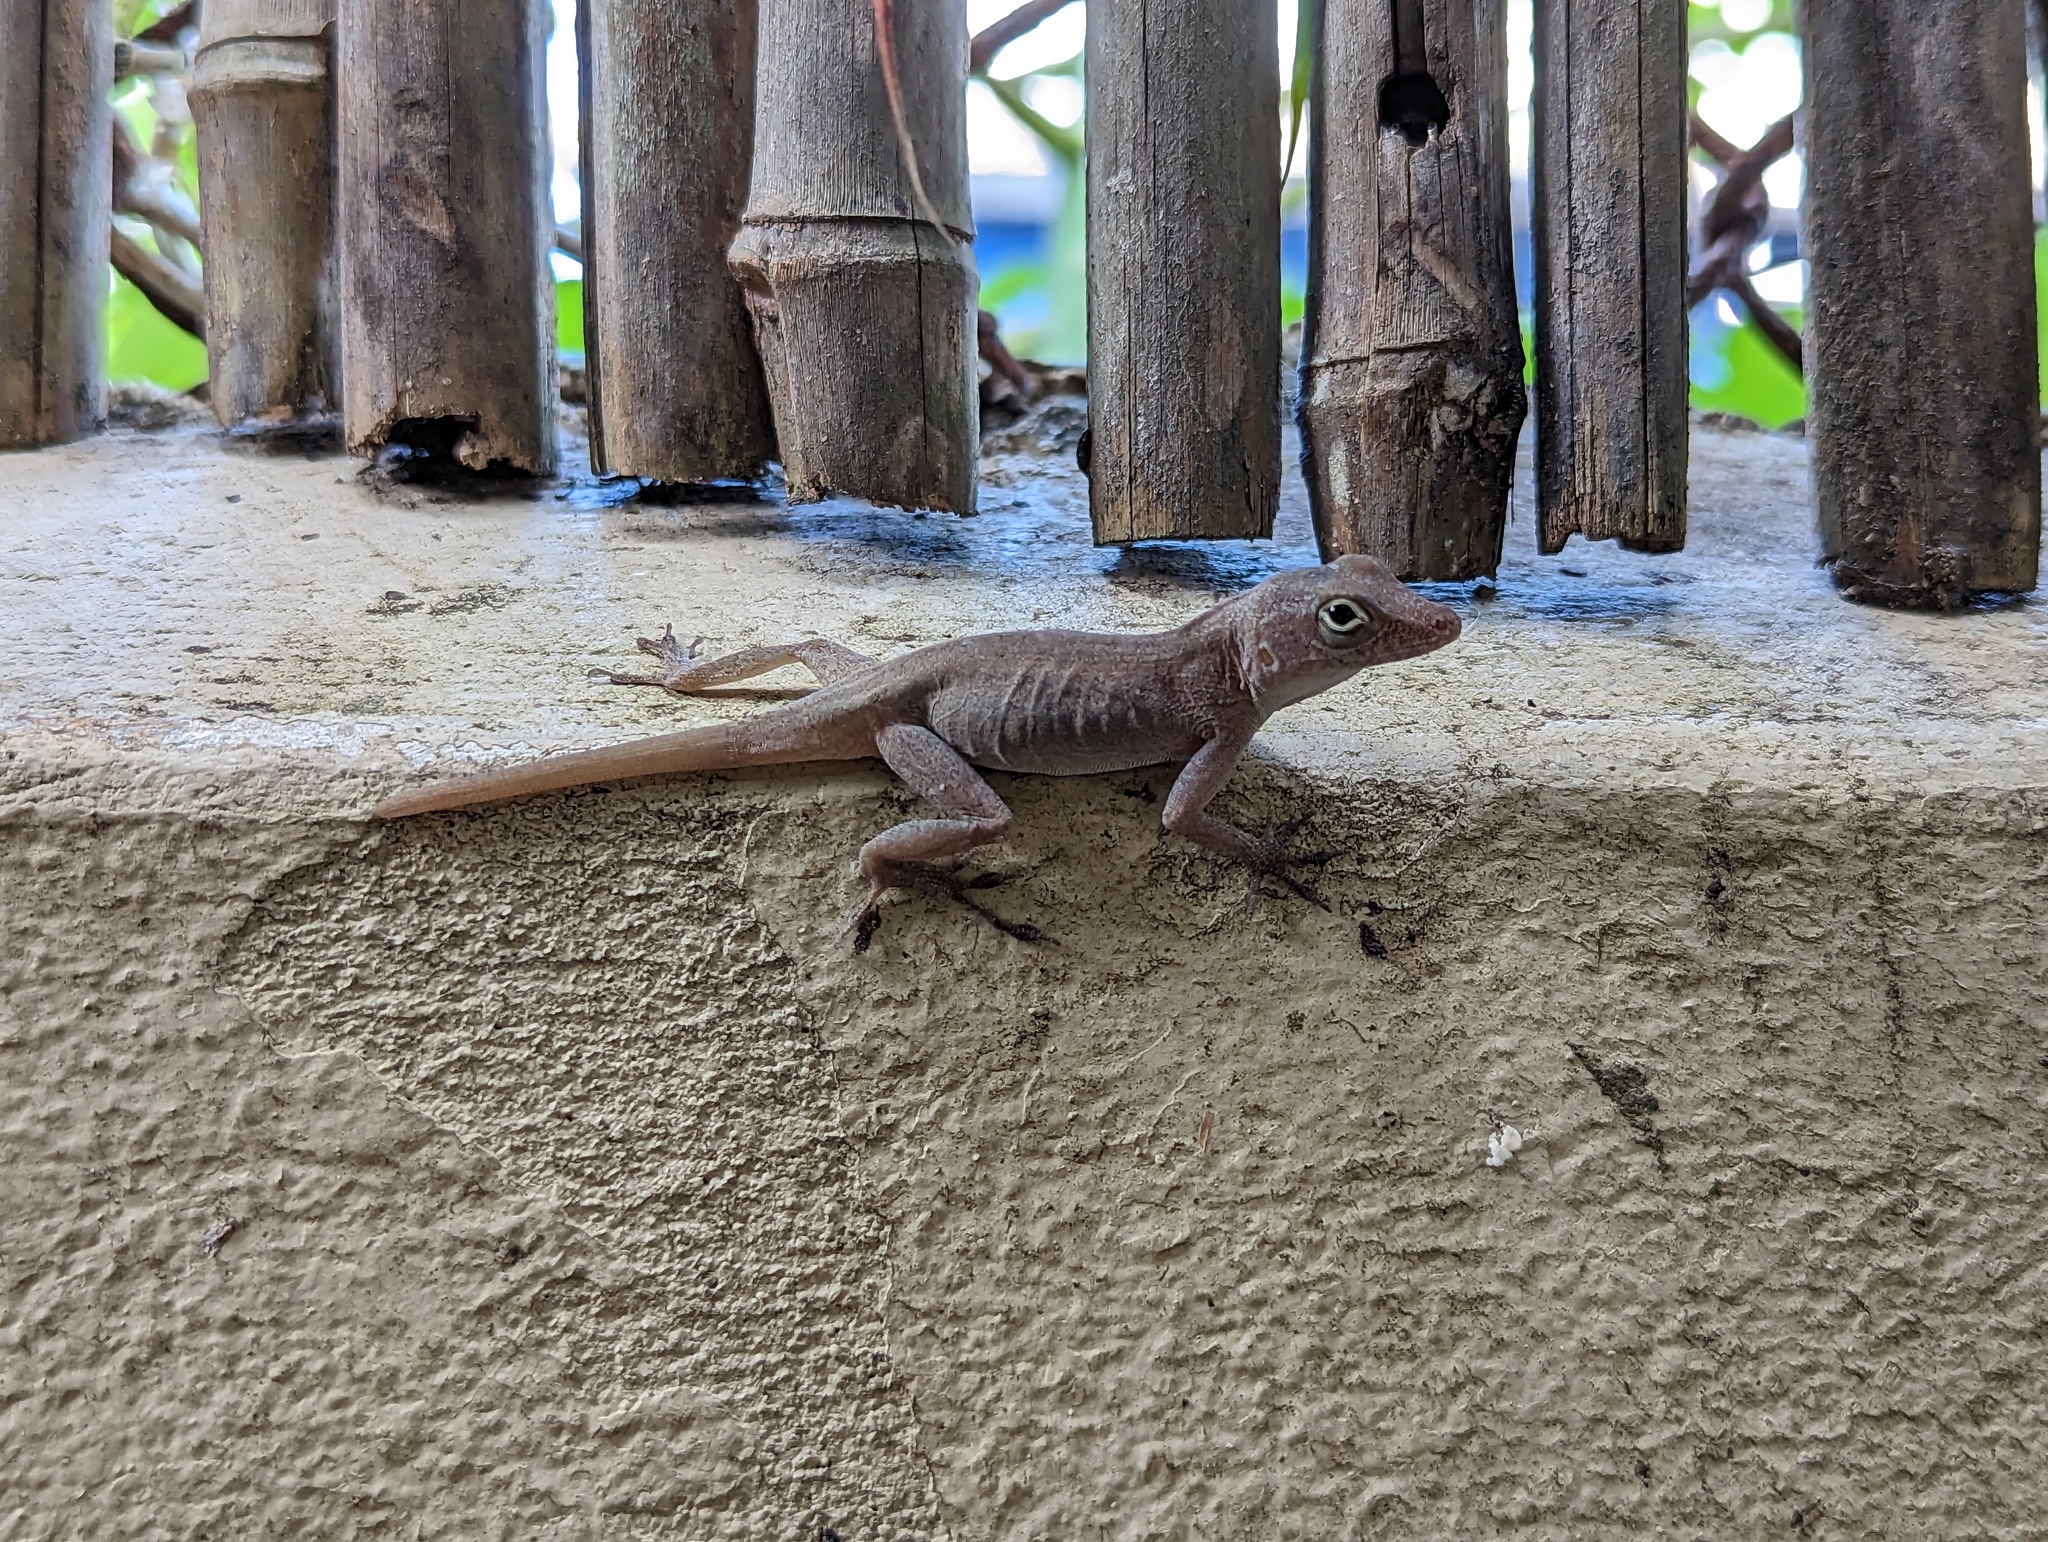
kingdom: Animalia
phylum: Chordata
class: Squamata
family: Dactyloidae
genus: Anolis
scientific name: Anolis cristatellus
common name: Crested anole
